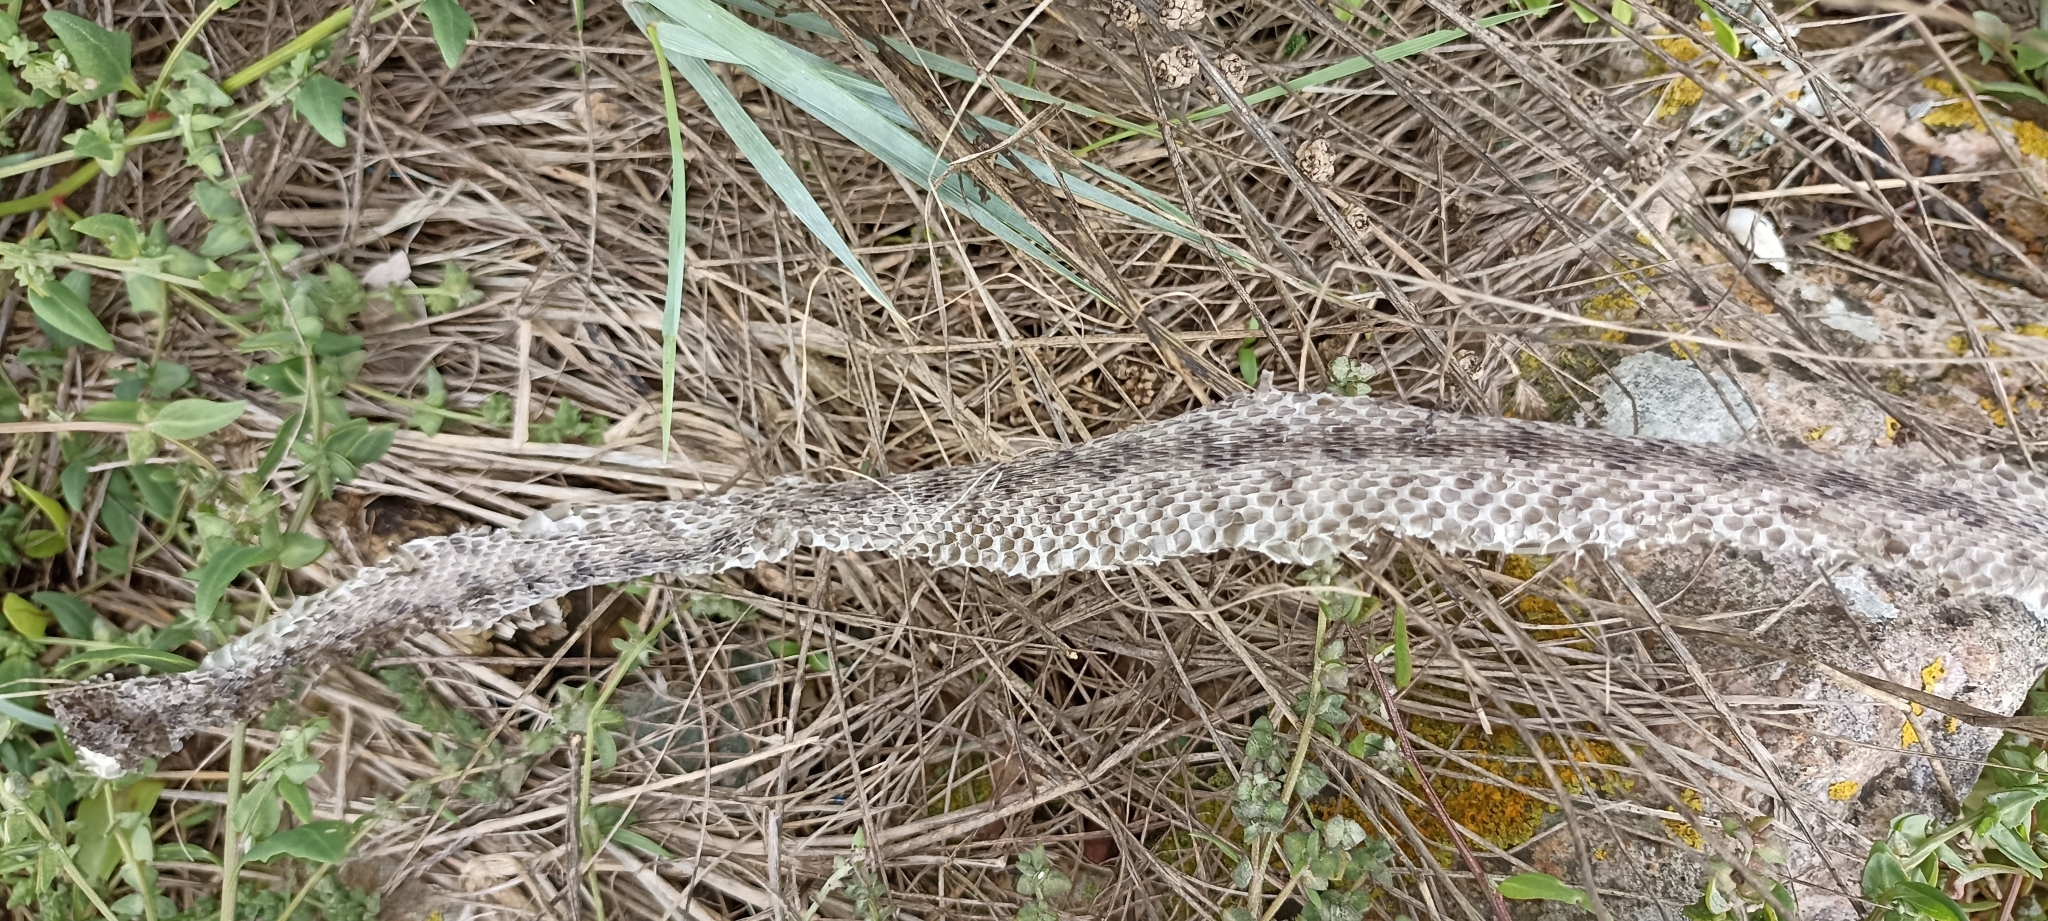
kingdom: Animalia
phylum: Chordata
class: Squamata
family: Viperidae
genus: Vipera
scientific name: Vipera aspis
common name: Asp viper
